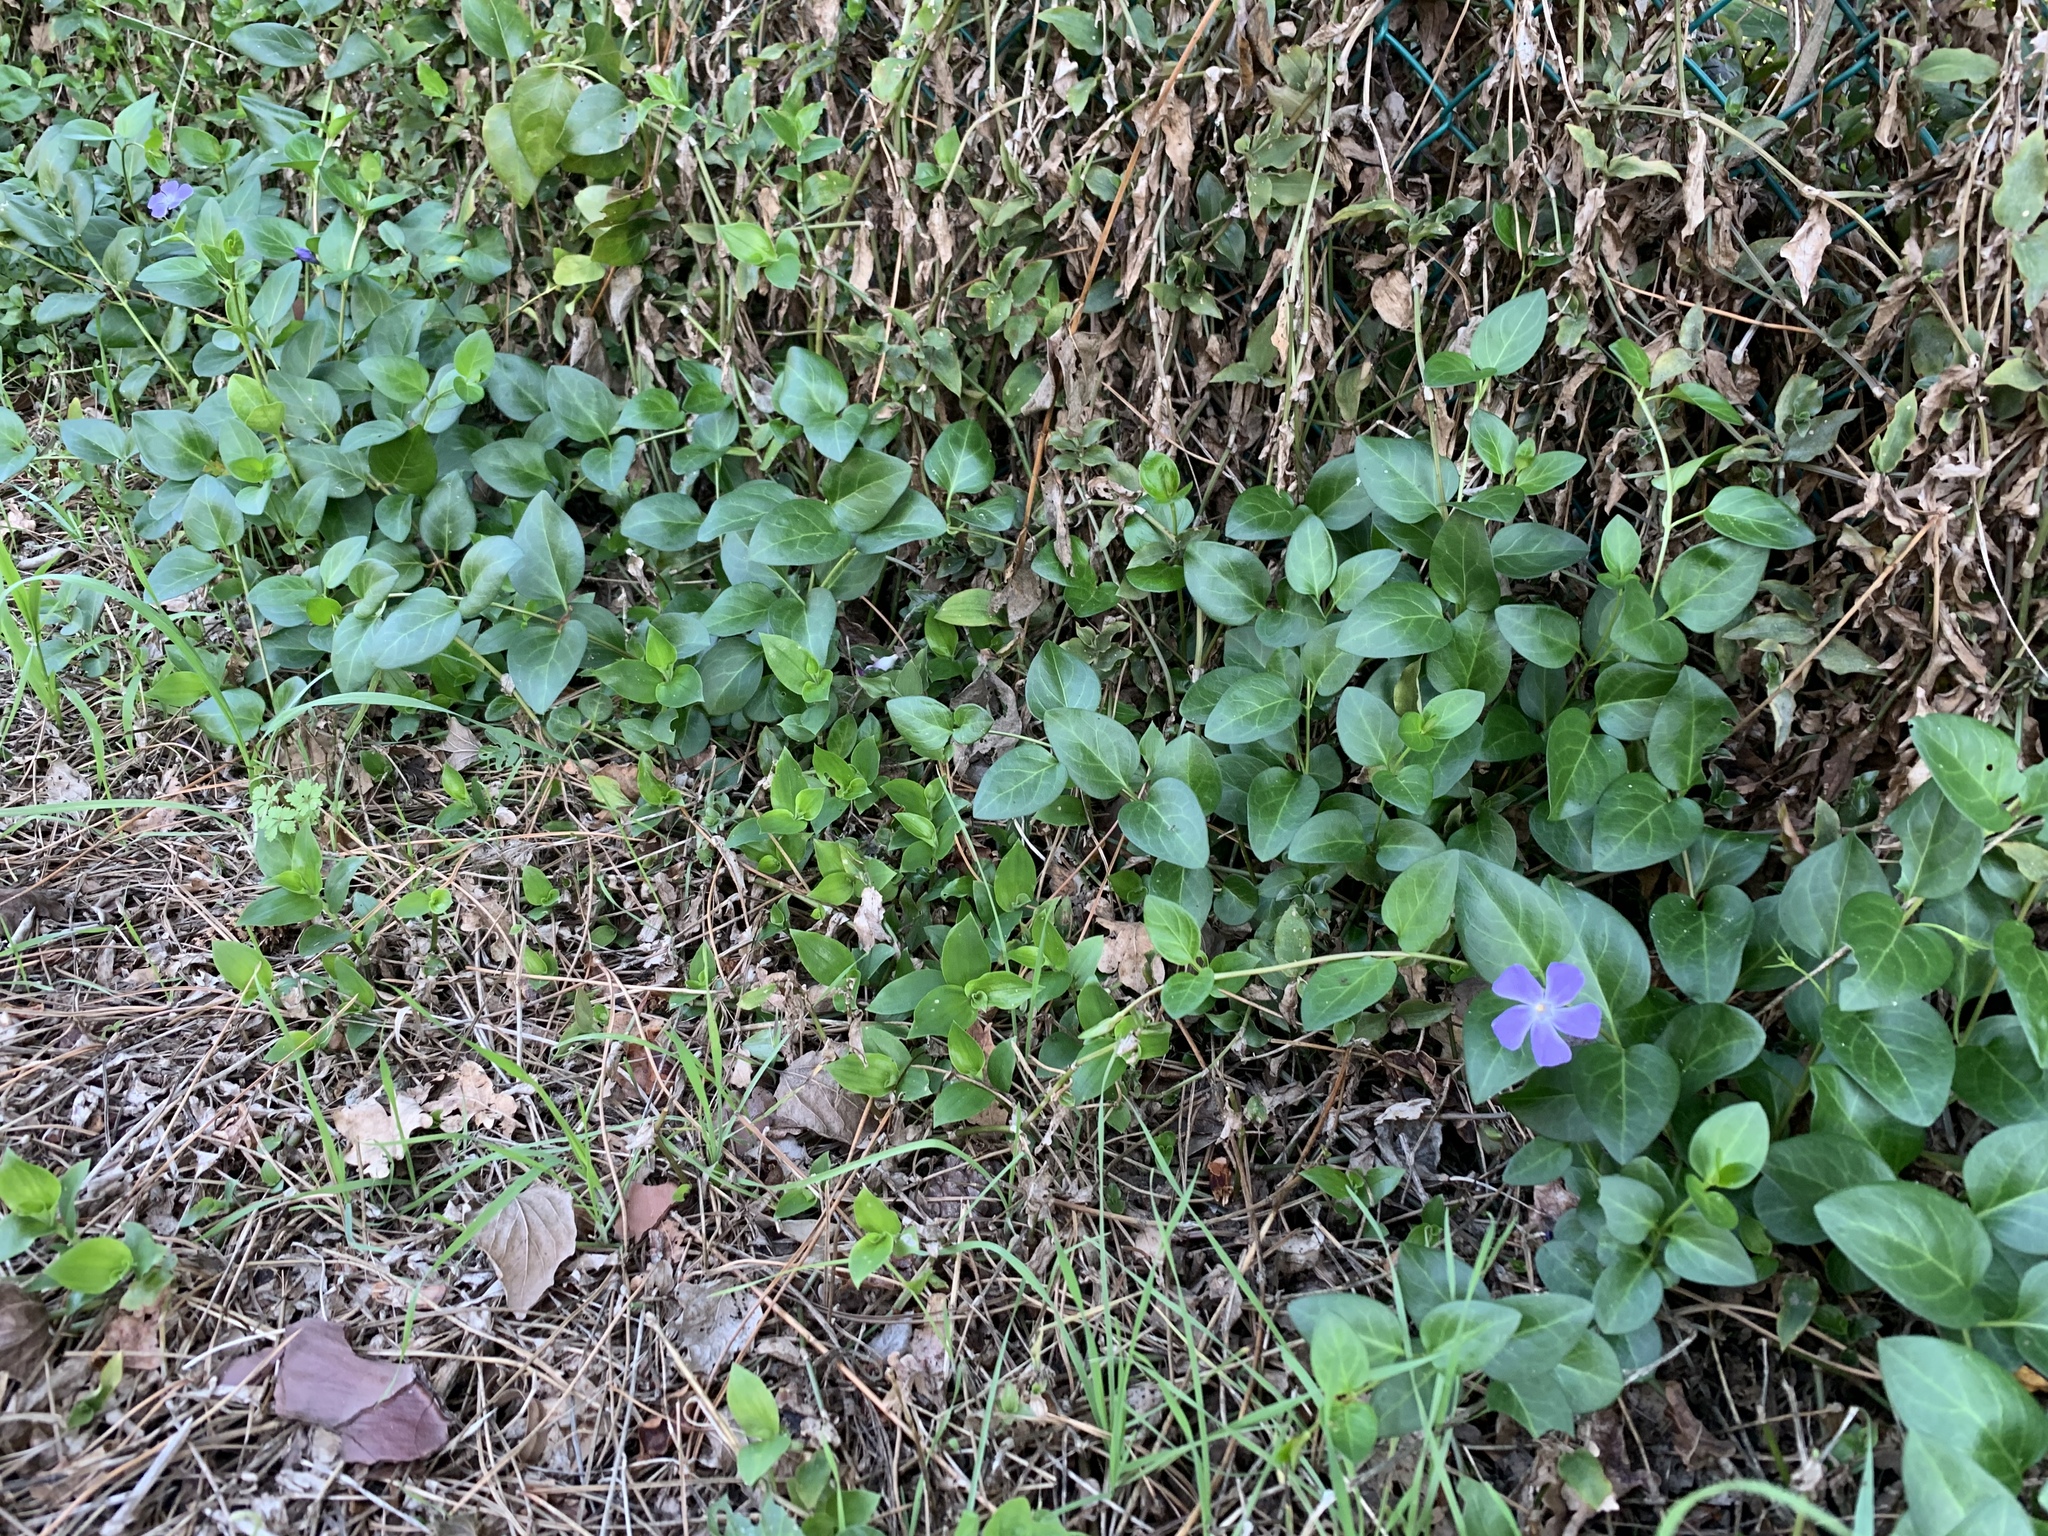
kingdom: Plantae
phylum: Tracheophyta
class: Magnoliopsida
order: Gentianales
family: Apocynaceae
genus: Vinca
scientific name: Vinca major
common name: Greater periwinkle
